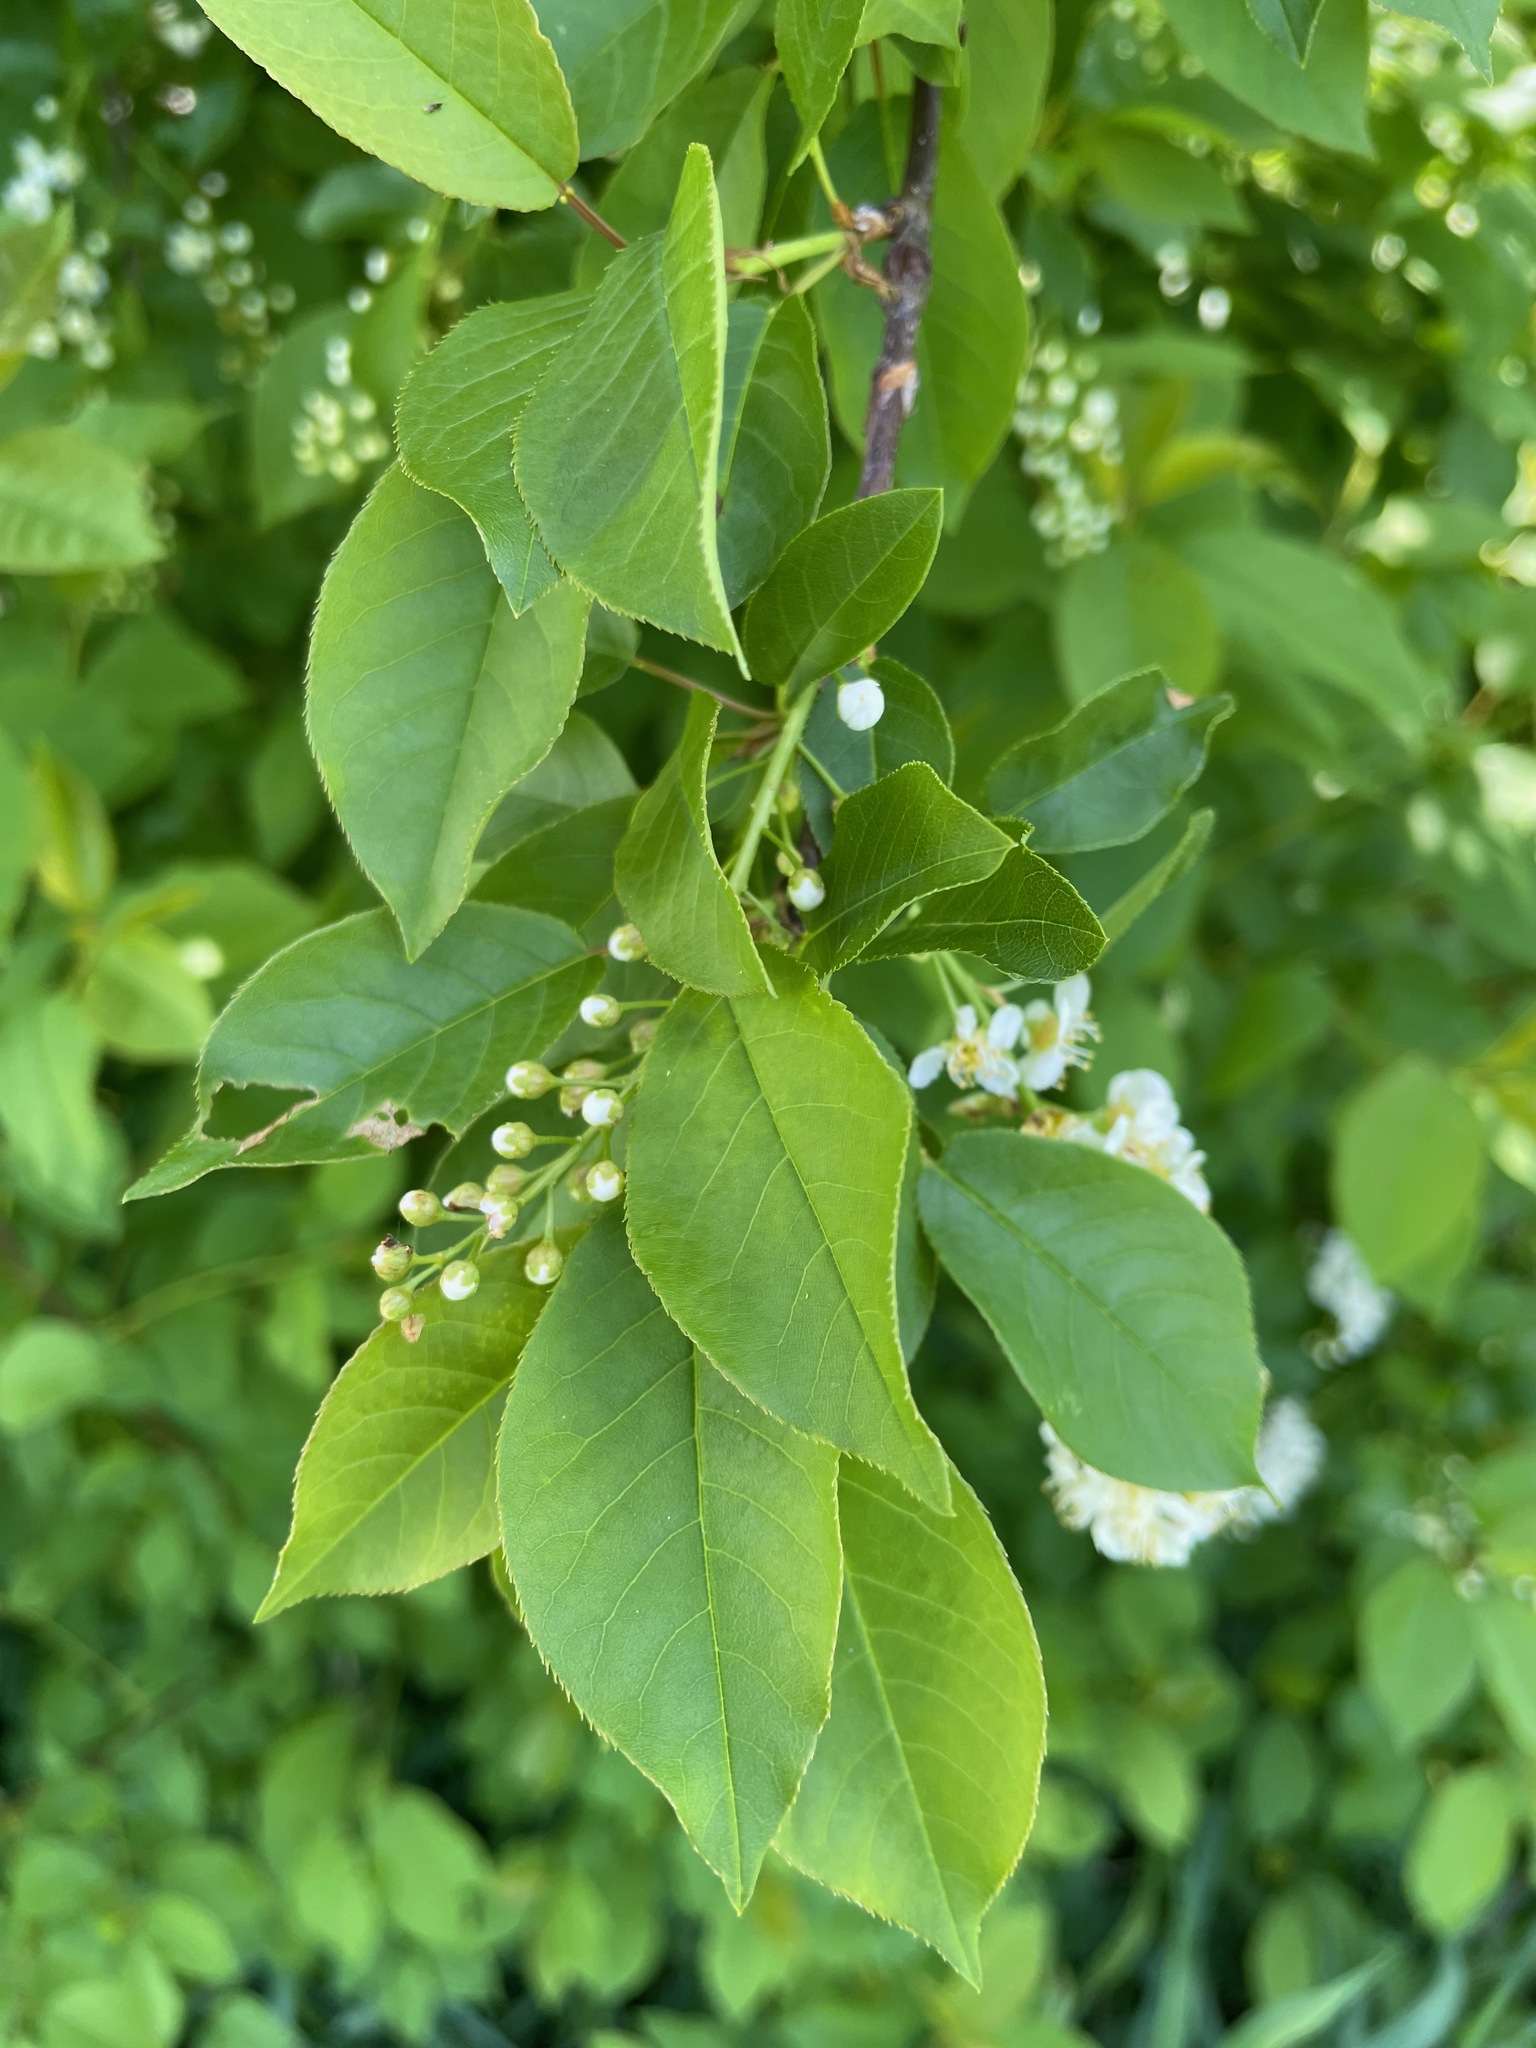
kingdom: Plantae
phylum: Tracheophyta
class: Magnoliopsida
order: Rosales
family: Rosaceae
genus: Prunus
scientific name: Prunus virginiana
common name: Chokecherry
